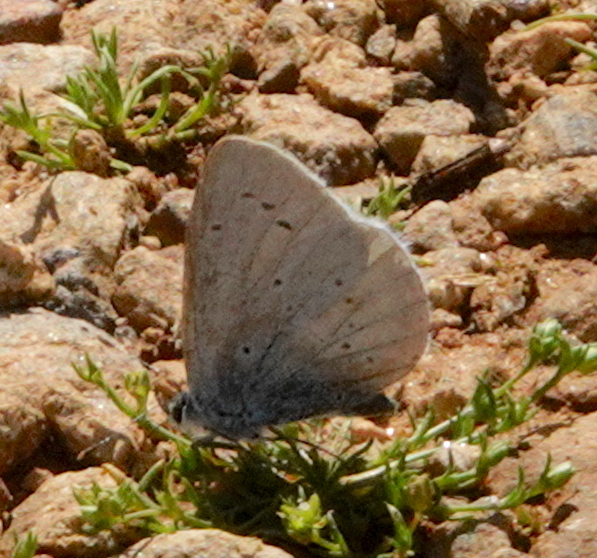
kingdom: Animalia
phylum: Arthropoda
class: Insecta
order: Lepidoptera
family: Lycaenidae
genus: Celastrina
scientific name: Celastrina argiolus
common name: Holly blue
